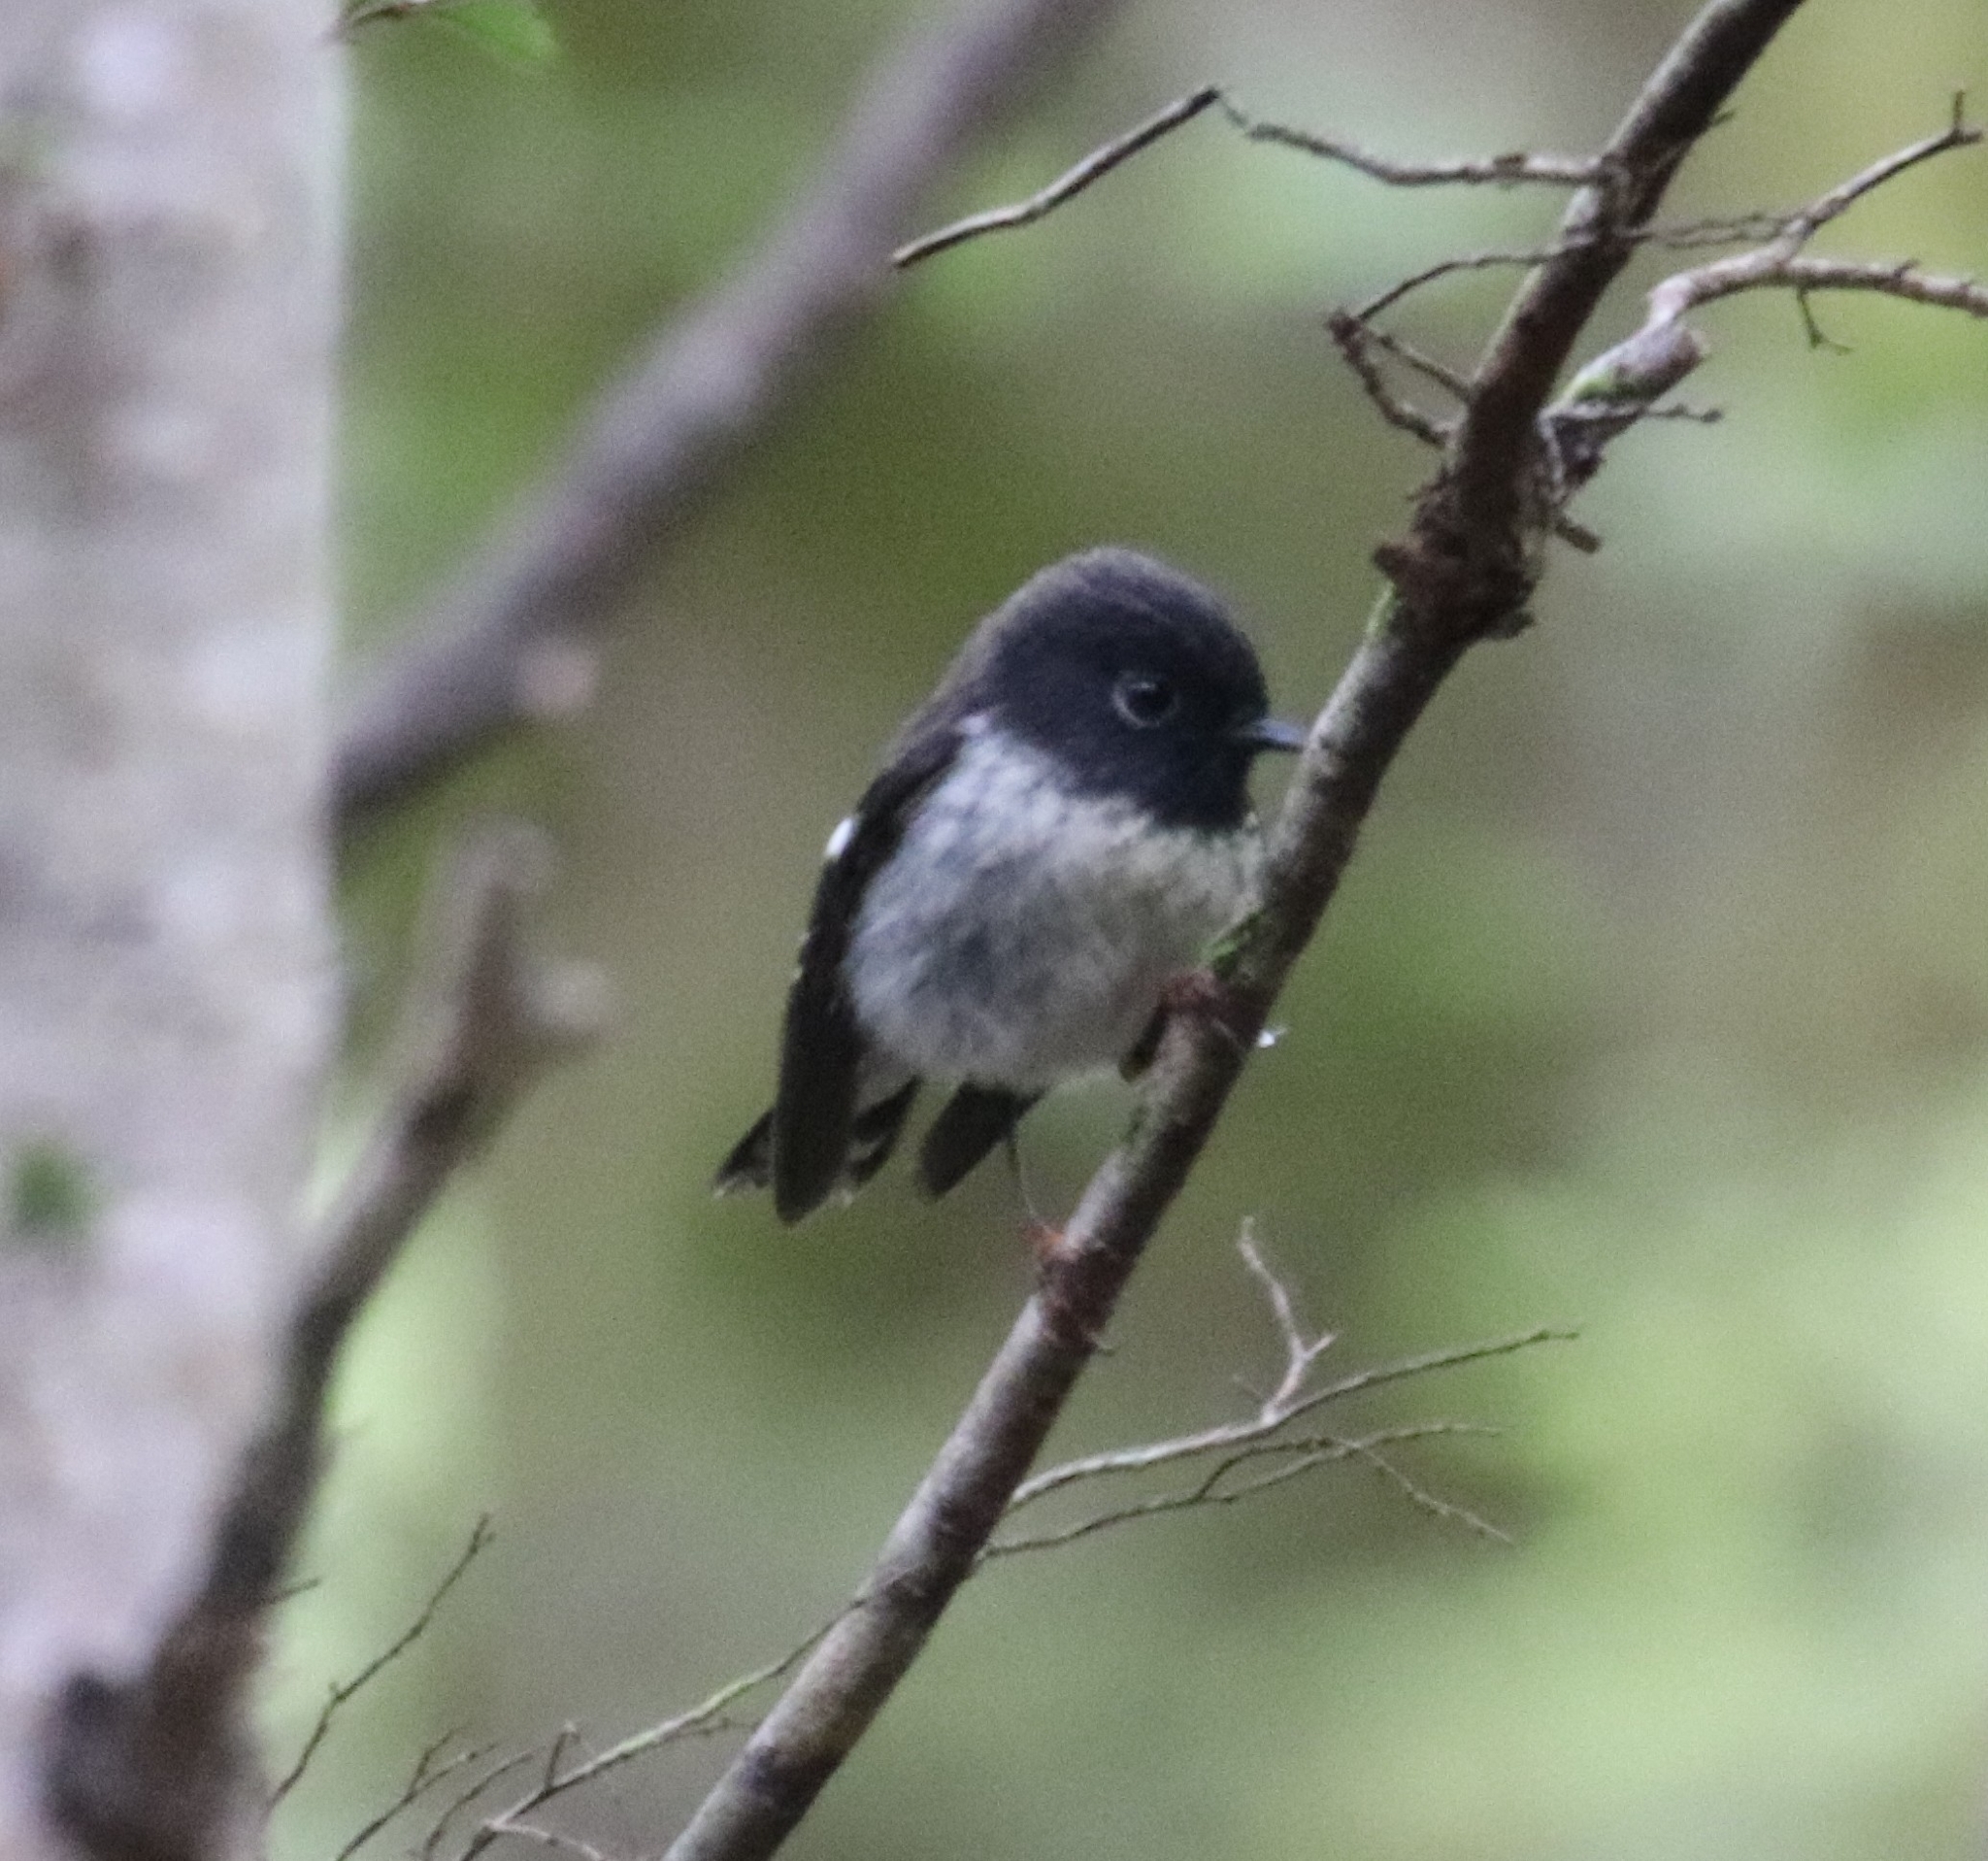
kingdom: Animalia
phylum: Chordata
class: Aves
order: Passeriformes
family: Petroicidae
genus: Petroica
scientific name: Petroica macrocephala
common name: Tomtit
